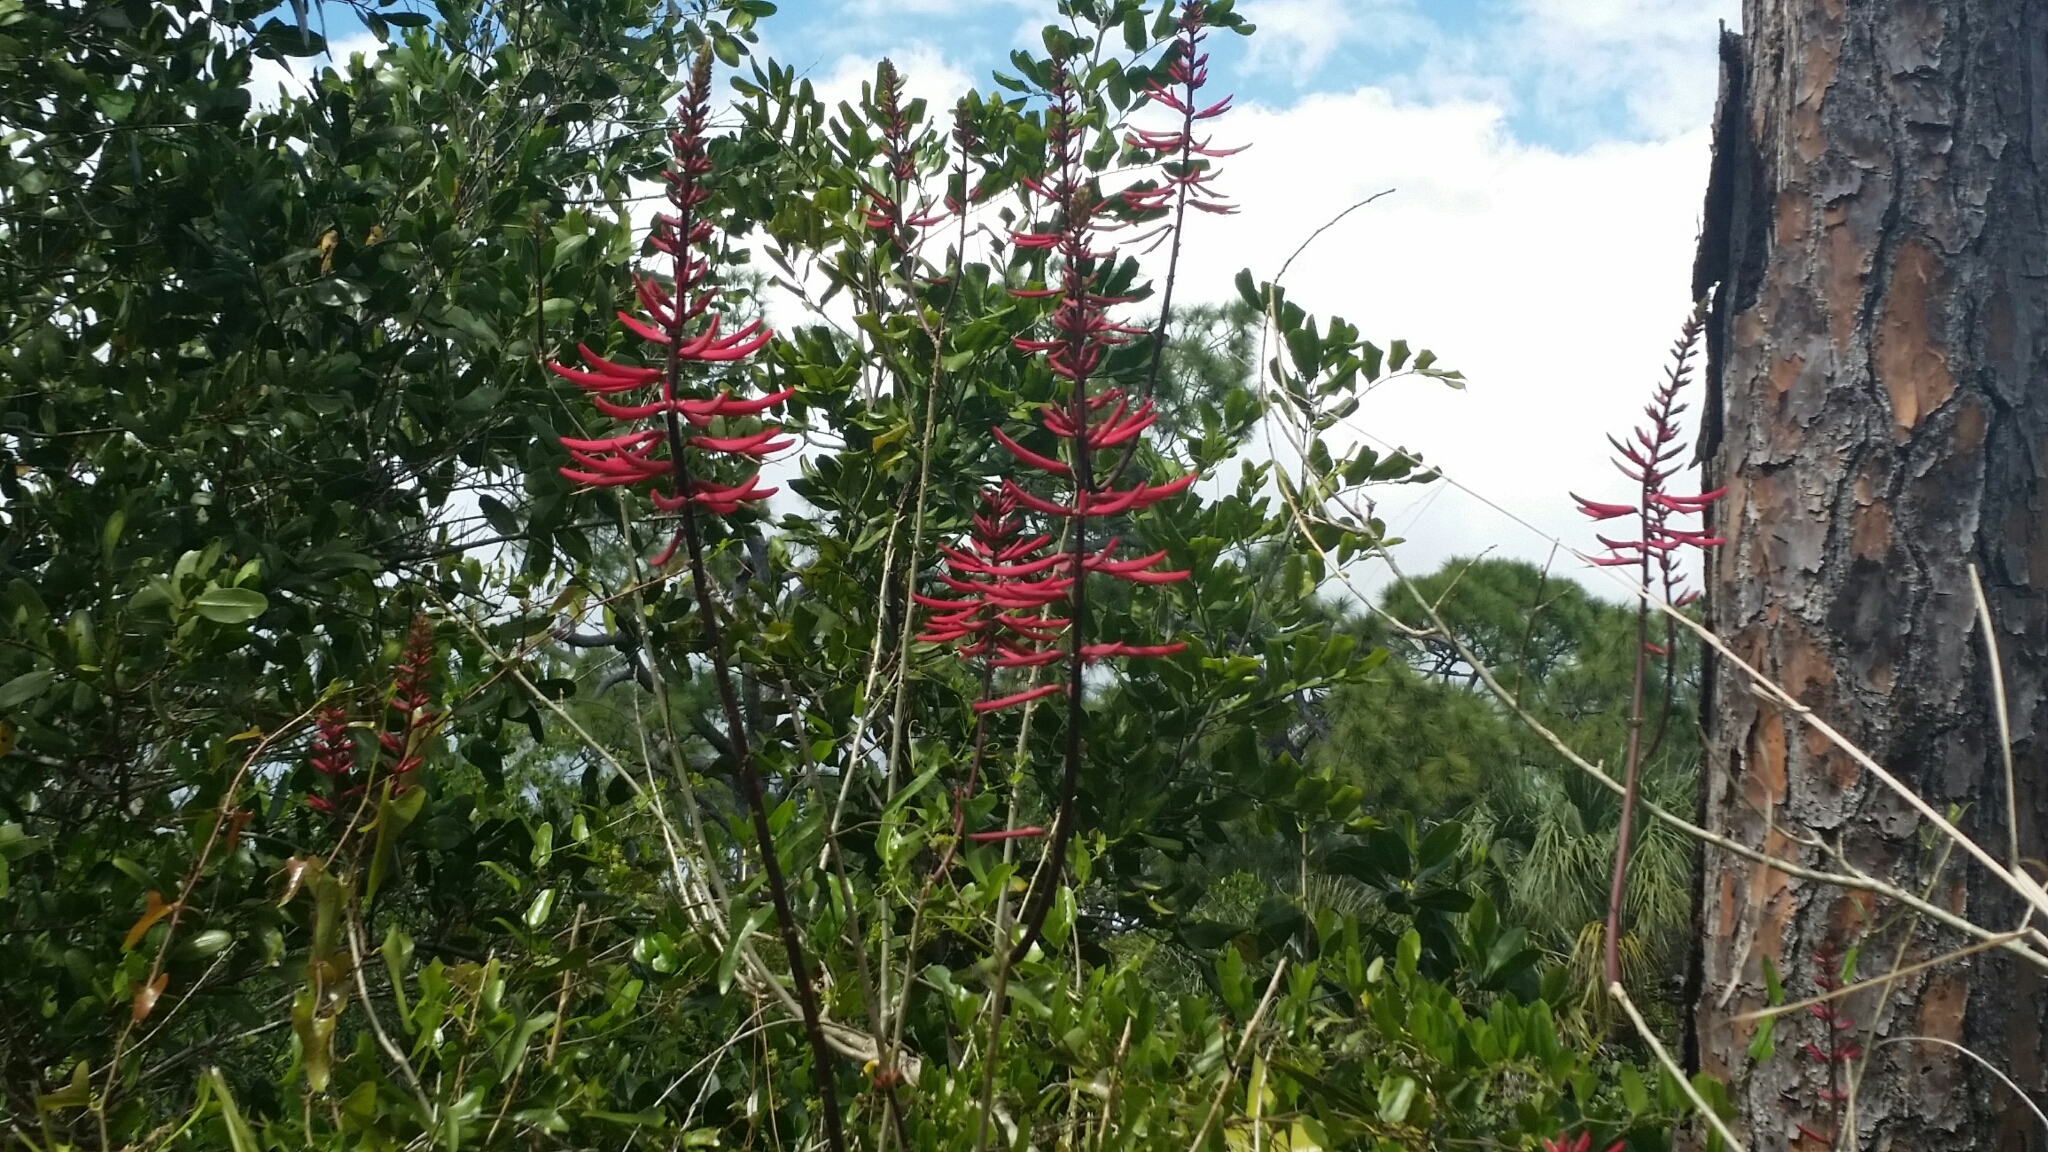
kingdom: Plantae
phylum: Tracheophyta
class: Magnoliopsida
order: Fabales
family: Fabaceae
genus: Erythrina
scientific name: Erythrina herbacea
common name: Coral-bean
